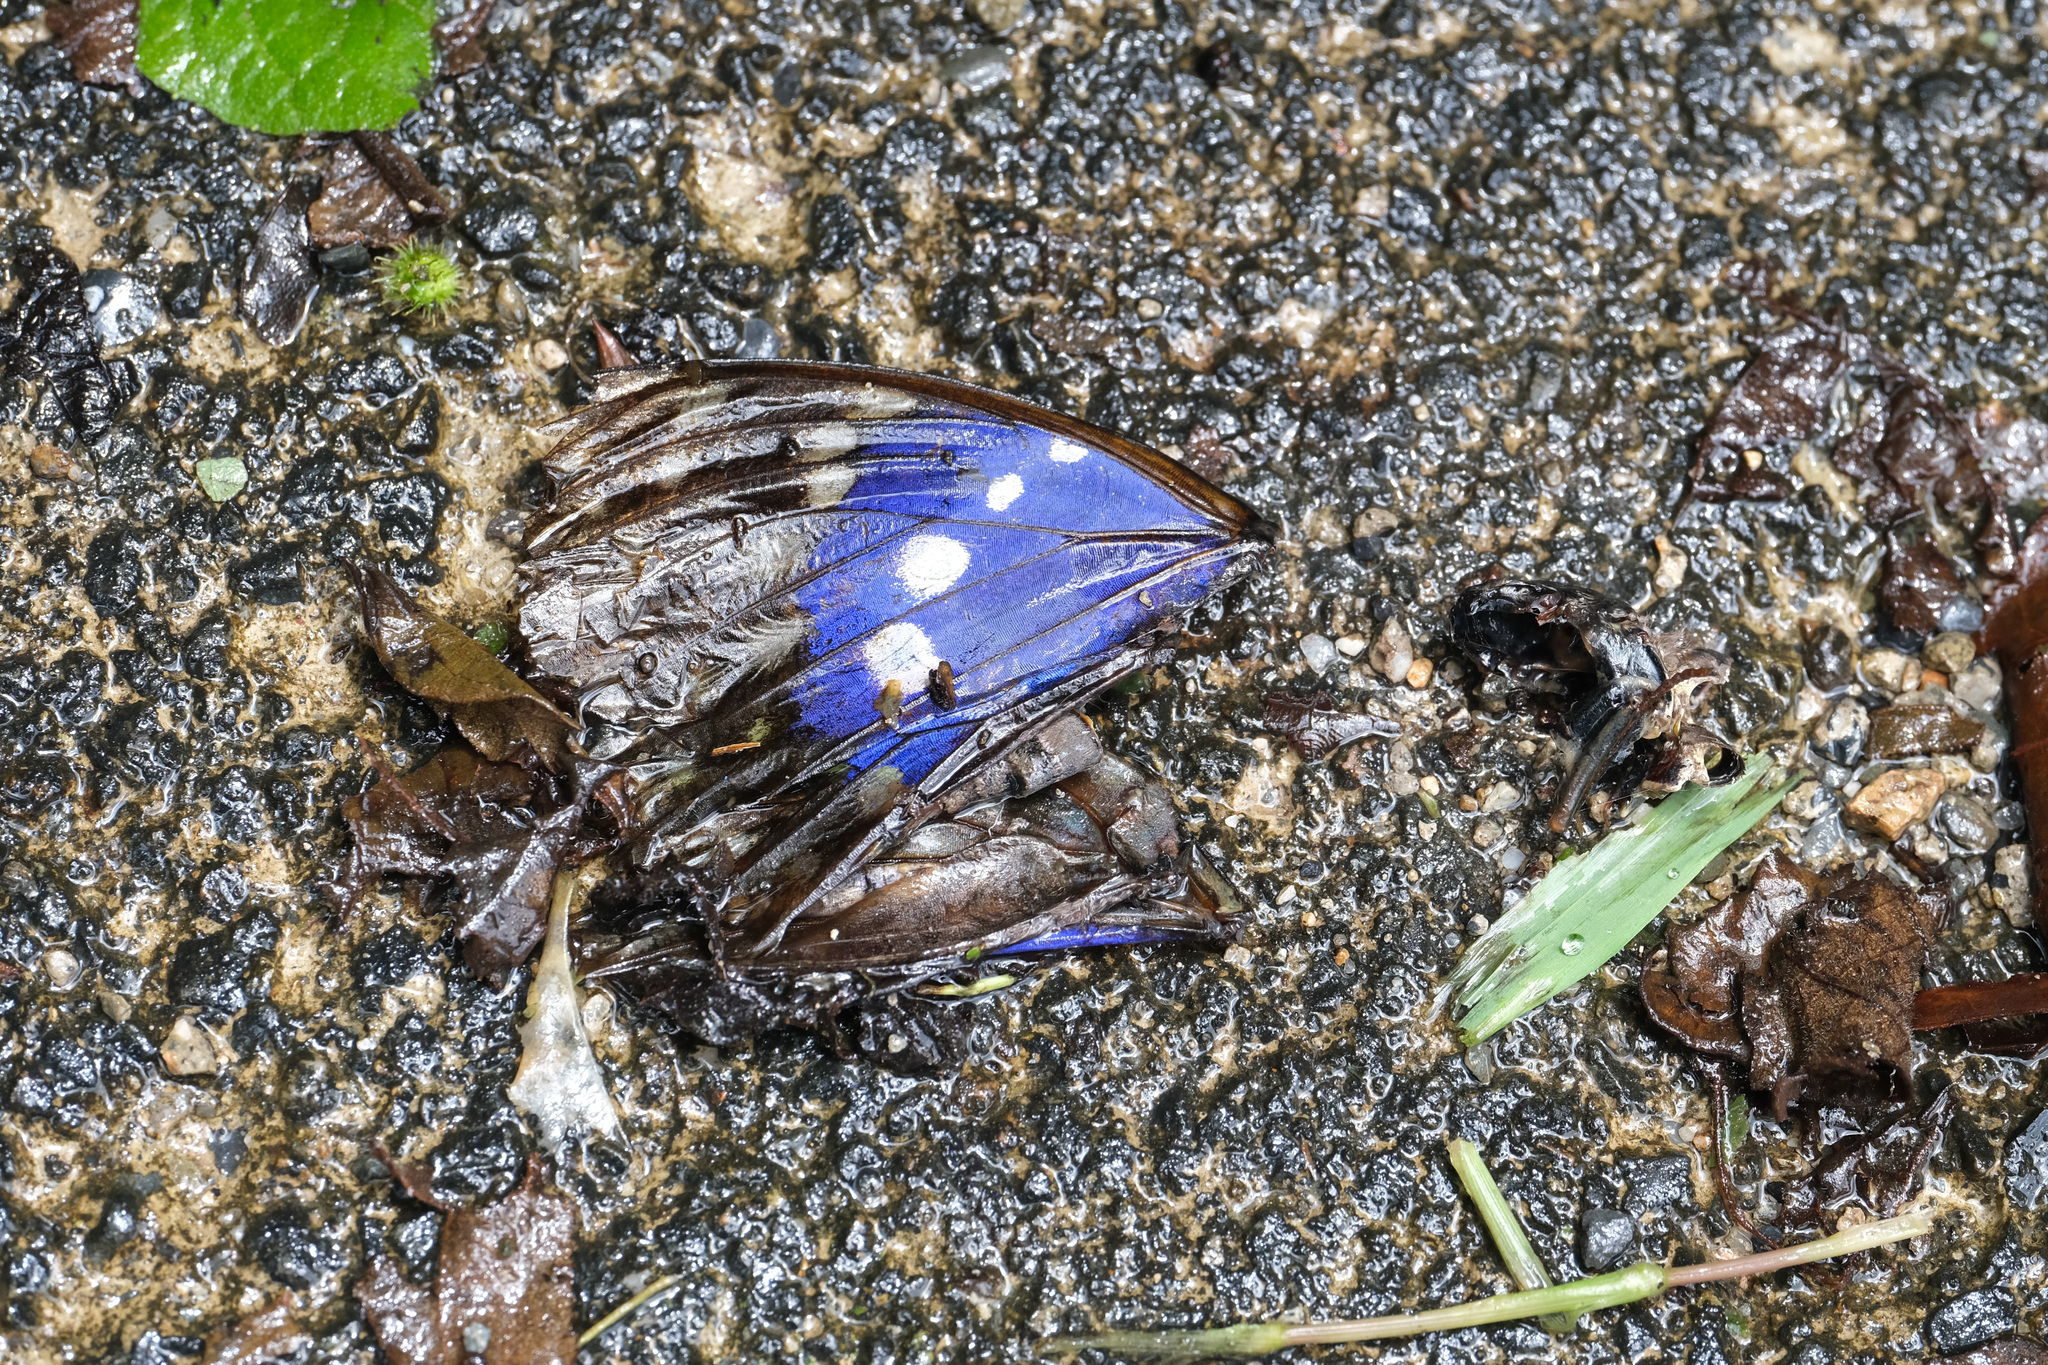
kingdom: Animalia
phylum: Arthropoda
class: Insecta
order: Lepidoptera
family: Nymphalidae
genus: Sasakia
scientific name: Sasakia charonda
